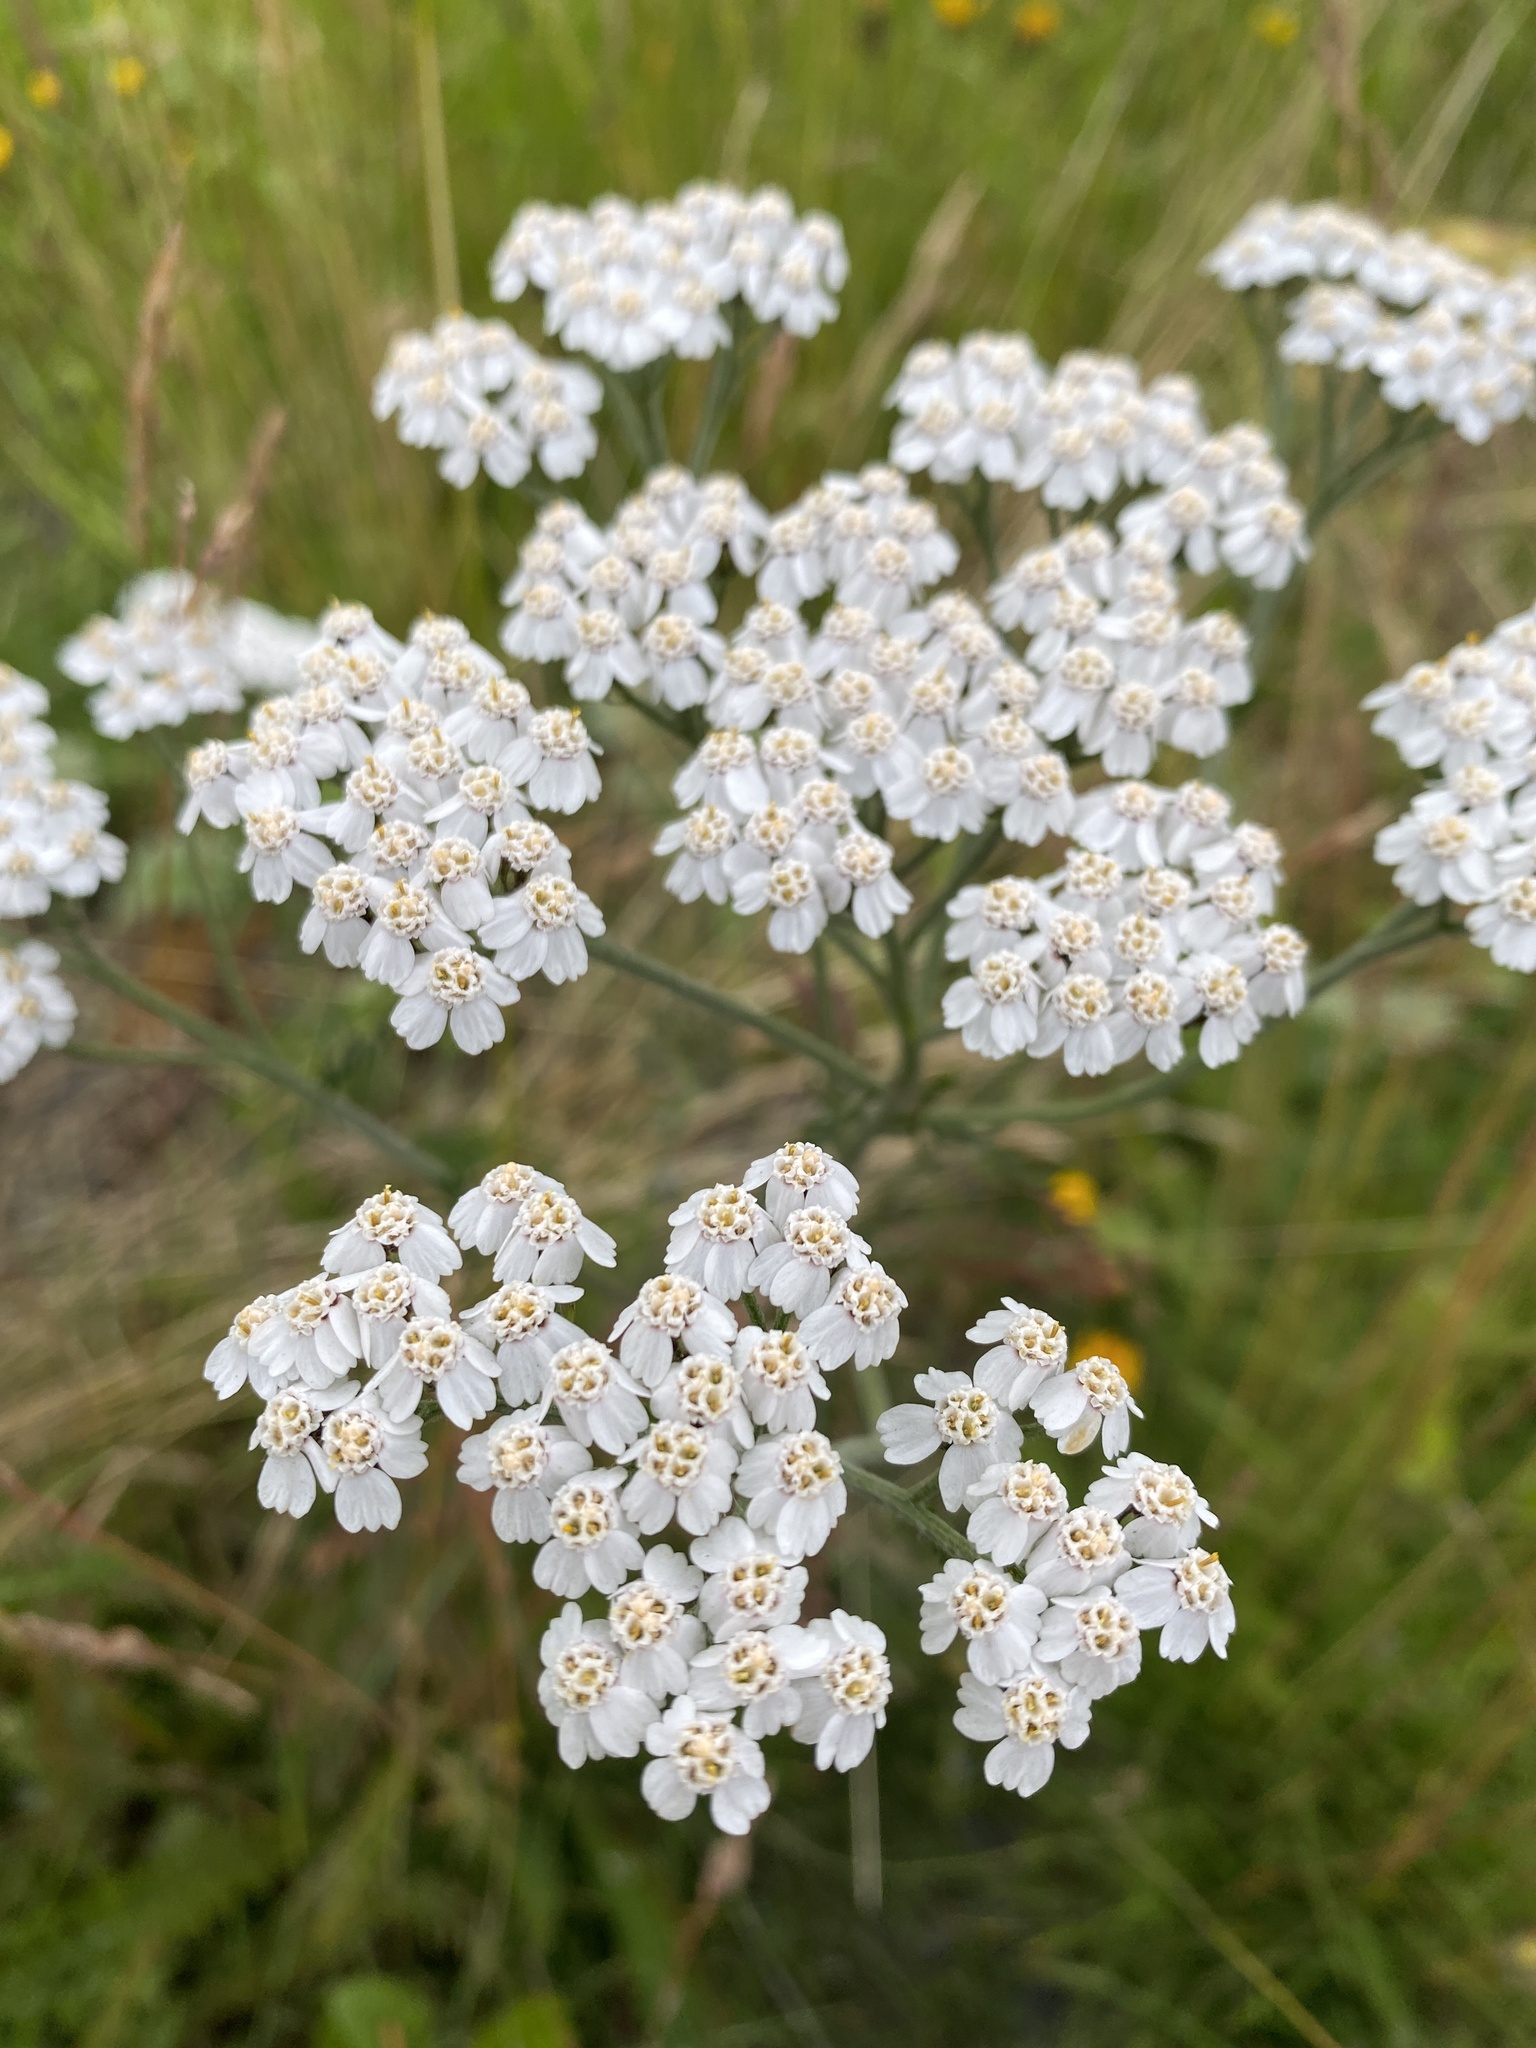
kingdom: Plantae
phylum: Tracheophyta
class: Magnoliopsida
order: Asterales
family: Asteraceae
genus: Achillea
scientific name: Achillea millefolium
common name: Yarrow
